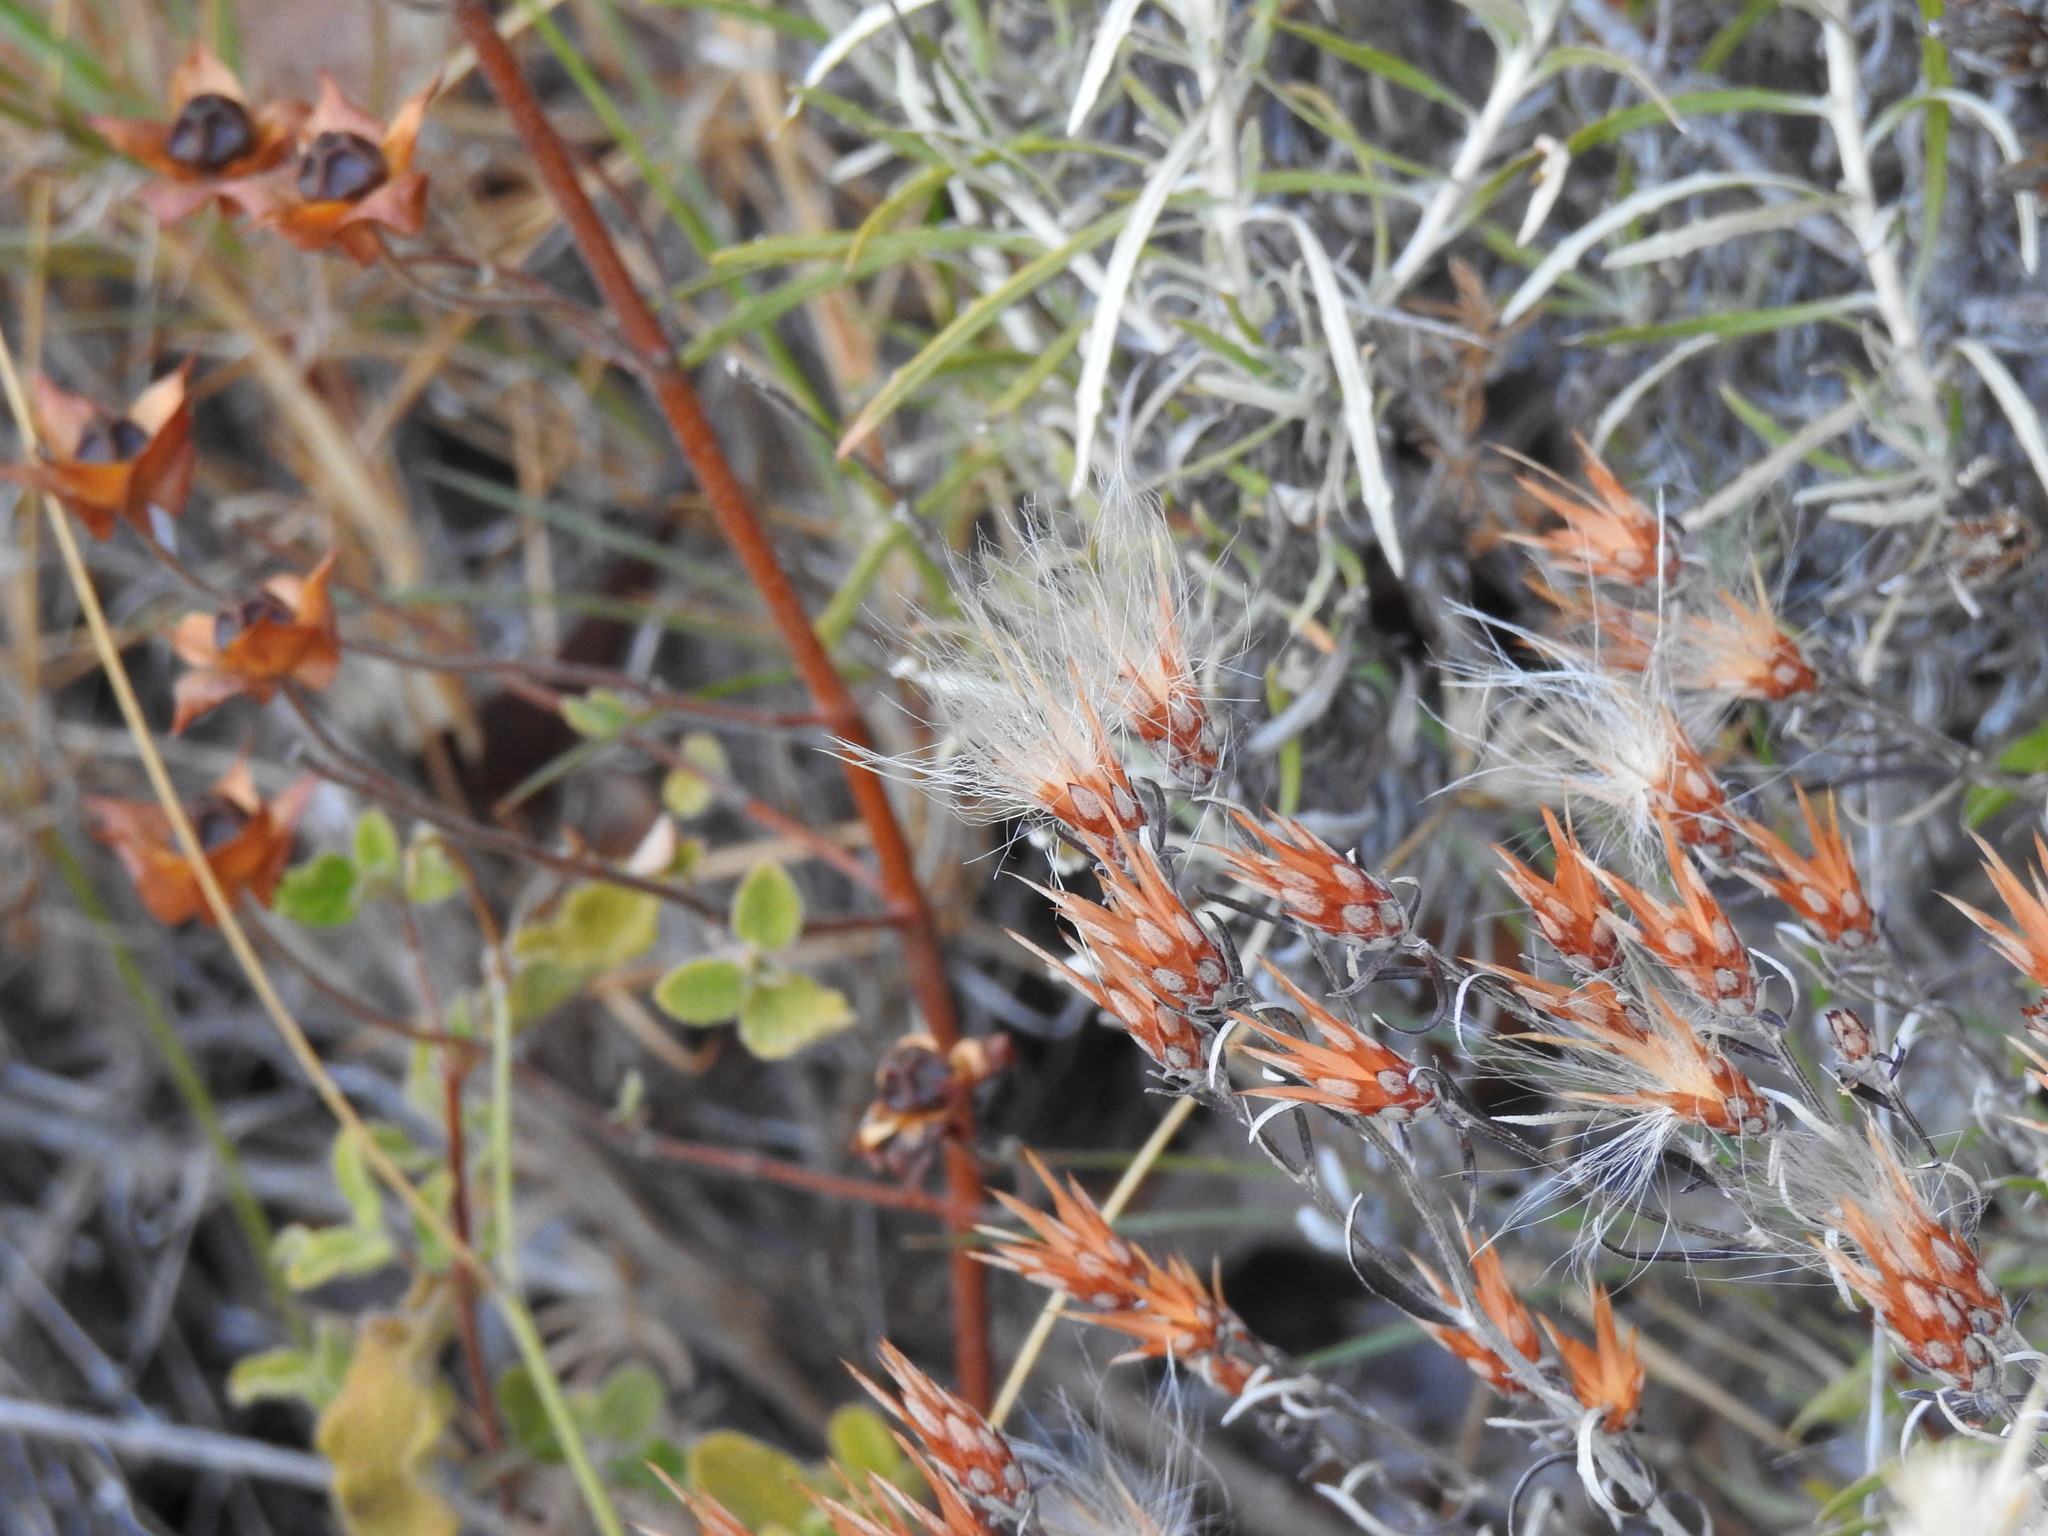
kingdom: Plantae
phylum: Tracheophyta
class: Magnoliopsida
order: Asterales
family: Asteraceae
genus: Staehelina
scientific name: Staehelina dubia
